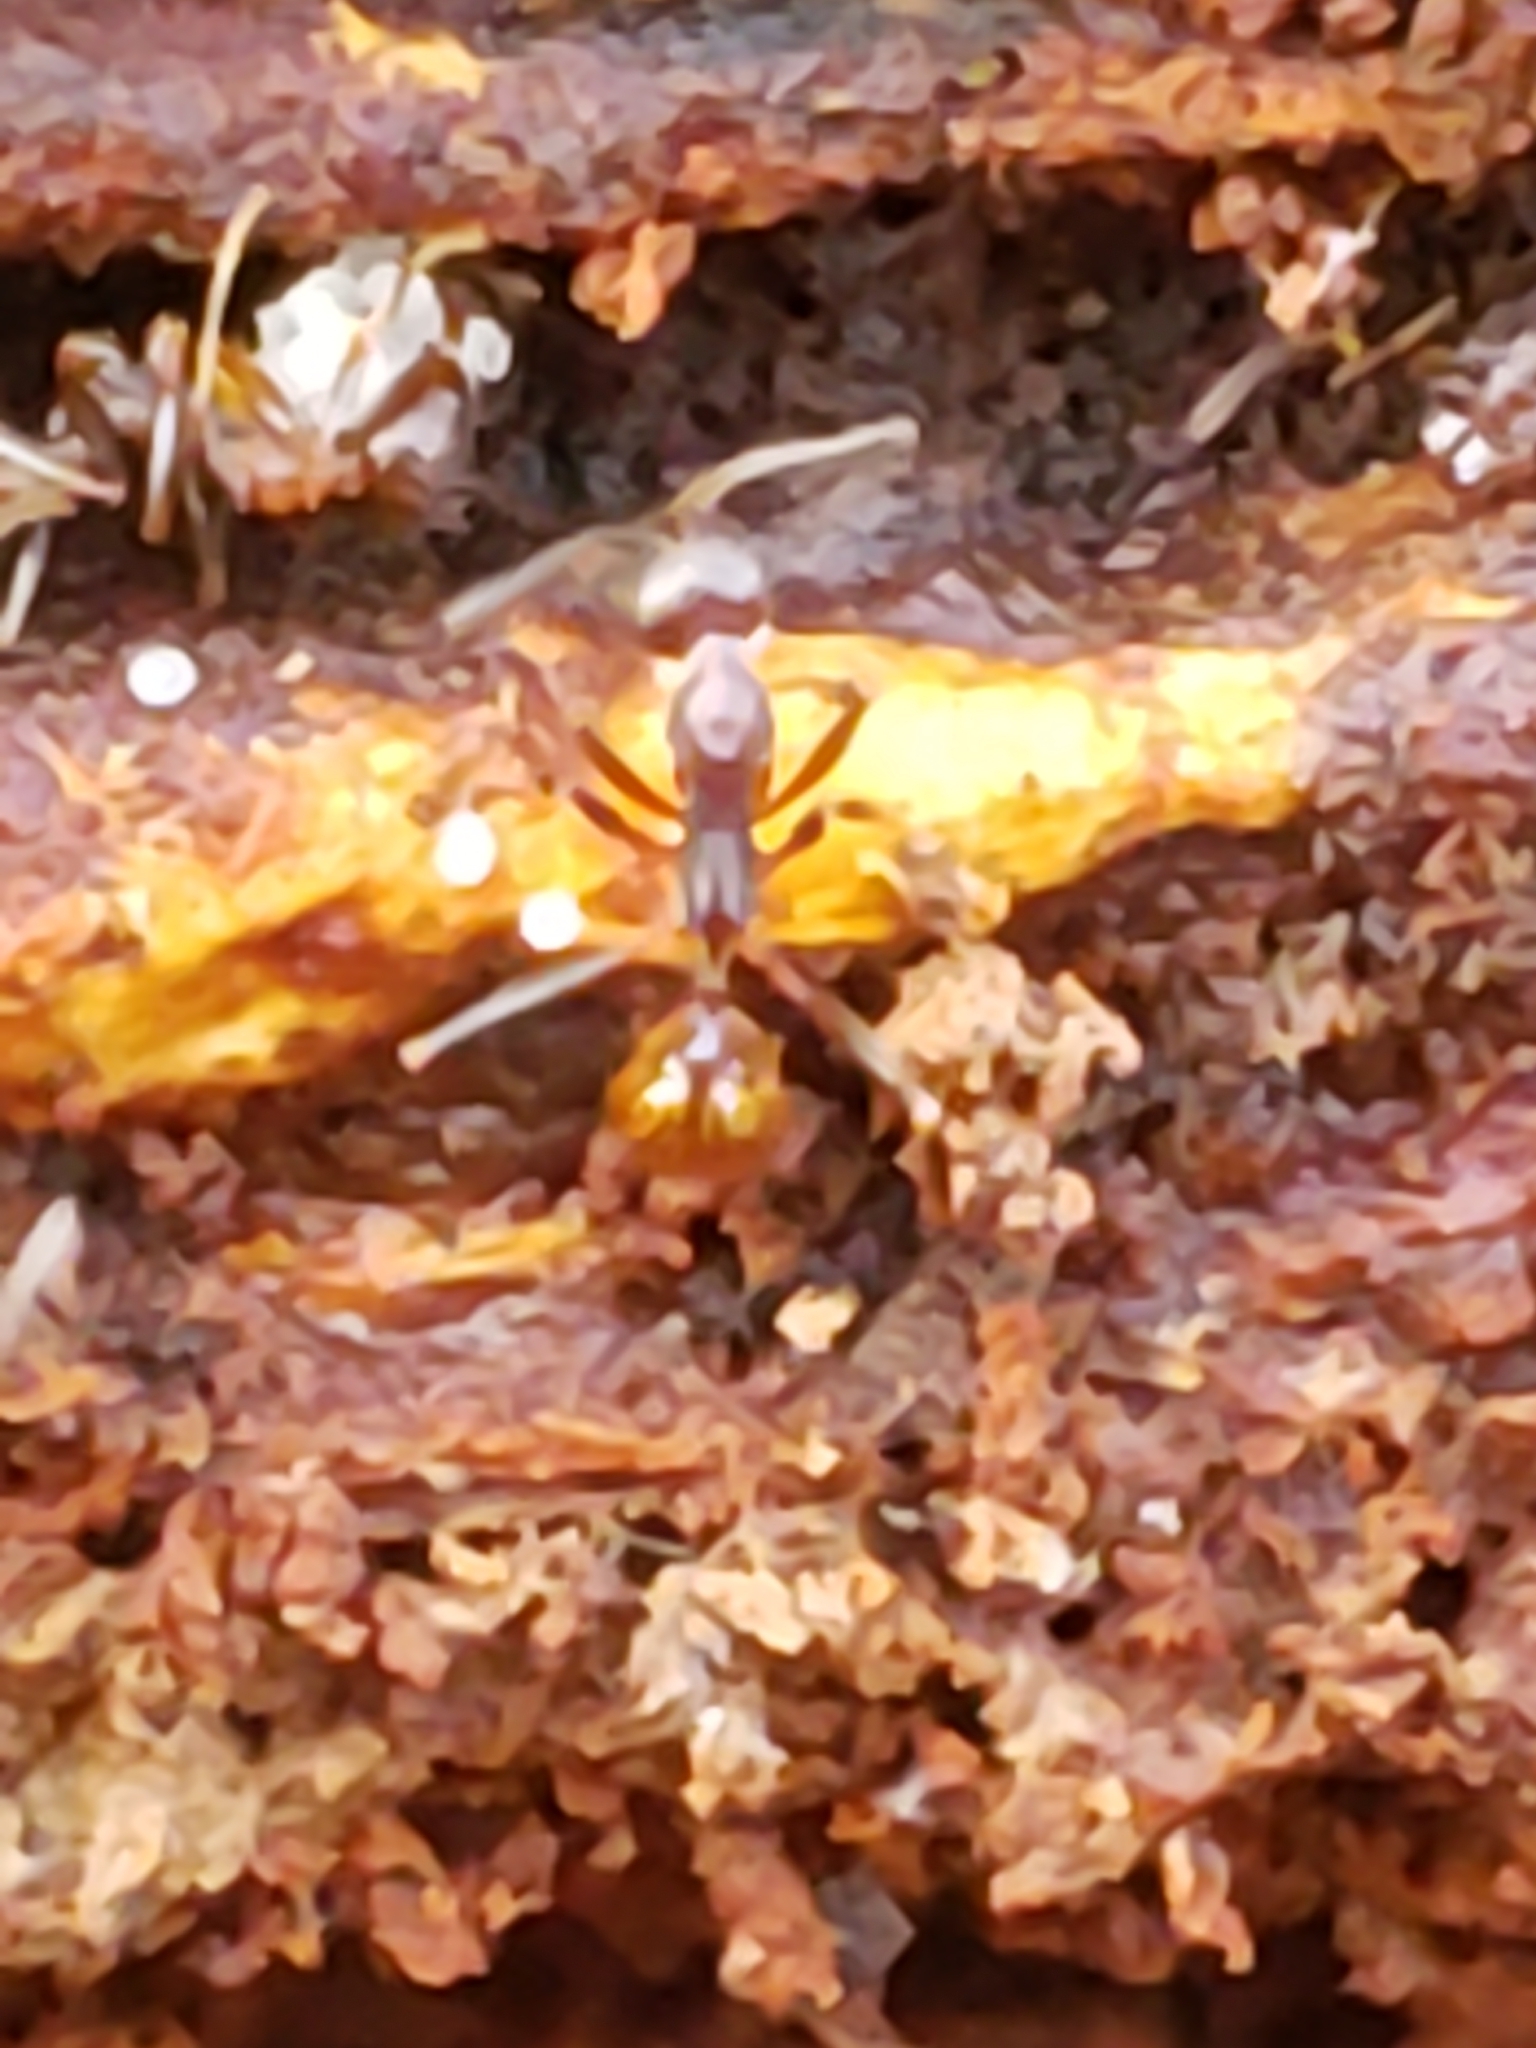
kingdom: Animalia
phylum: Arthropoda
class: Insecta
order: Hymenoptera
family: Formicidae
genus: Aphaenogaster
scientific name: Aphaenogaster fulva
